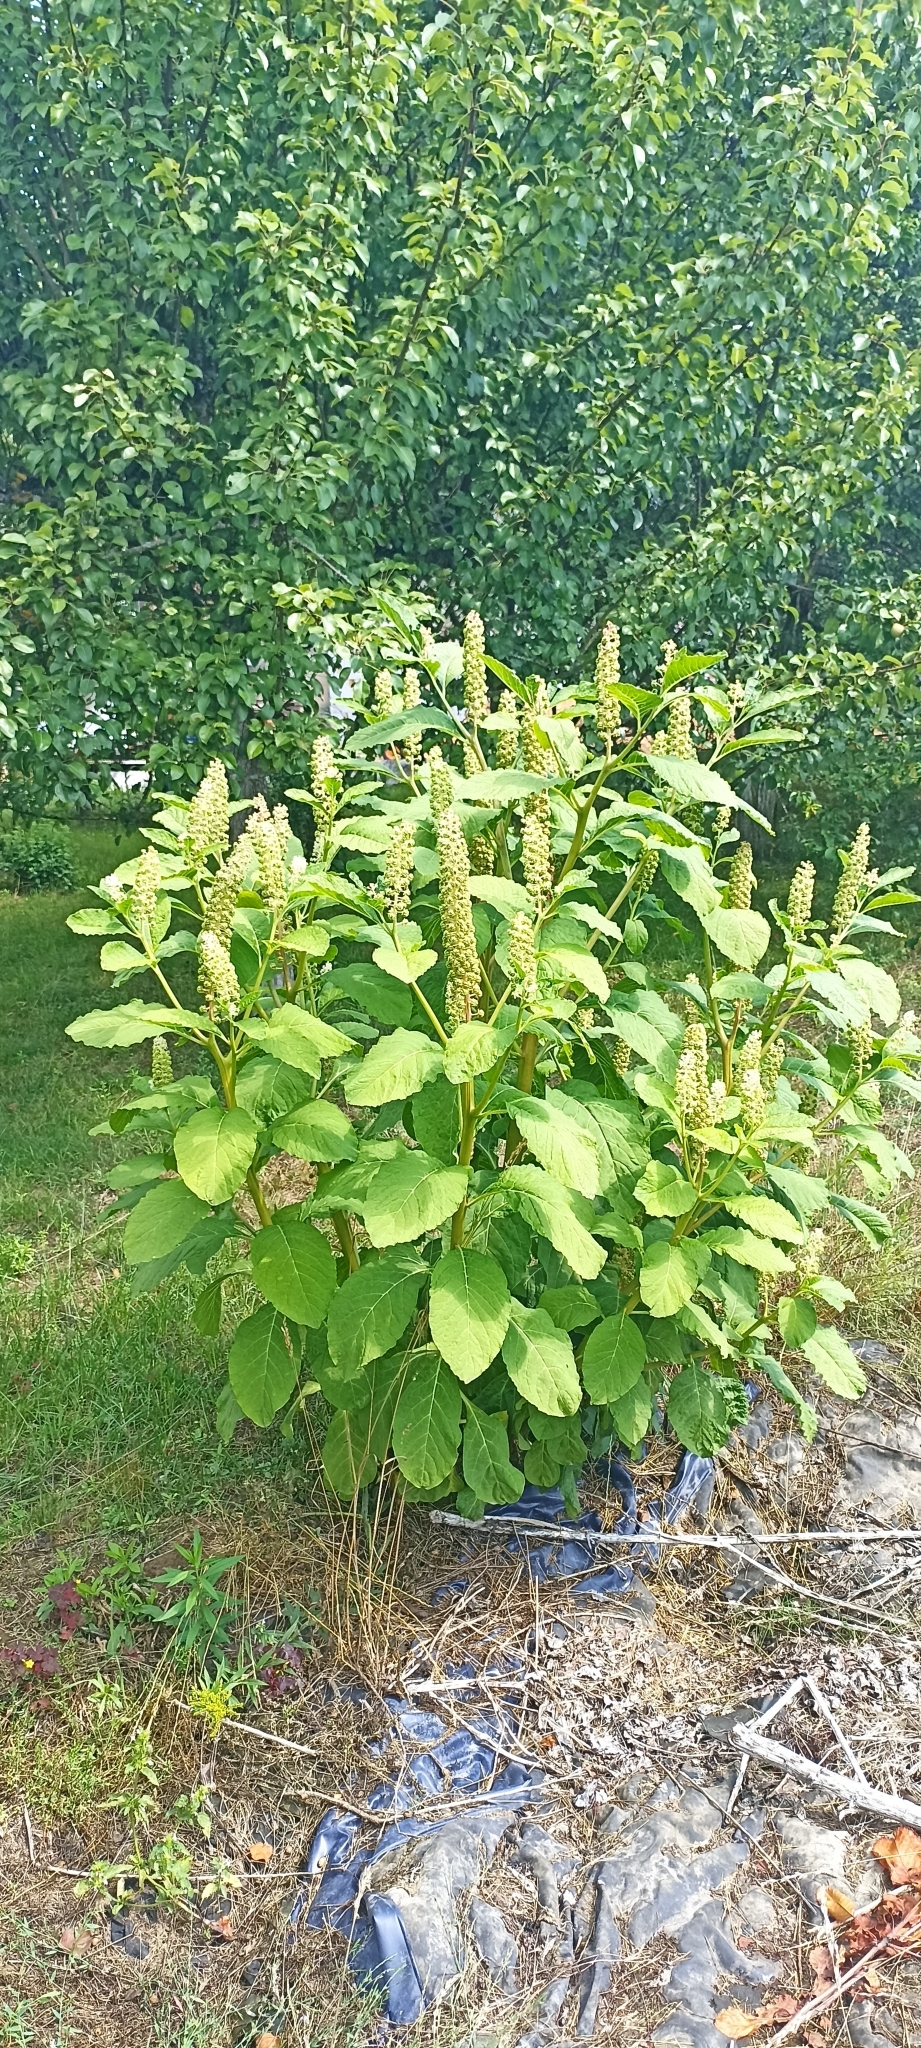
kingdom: Plantae
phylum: Tracheophyta
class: Magnoliopsida
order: Caryophyllales
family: Phytolaccaceae
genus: Phytolacca
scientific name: Phytolacca acinosa
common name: Indian pokeweed
